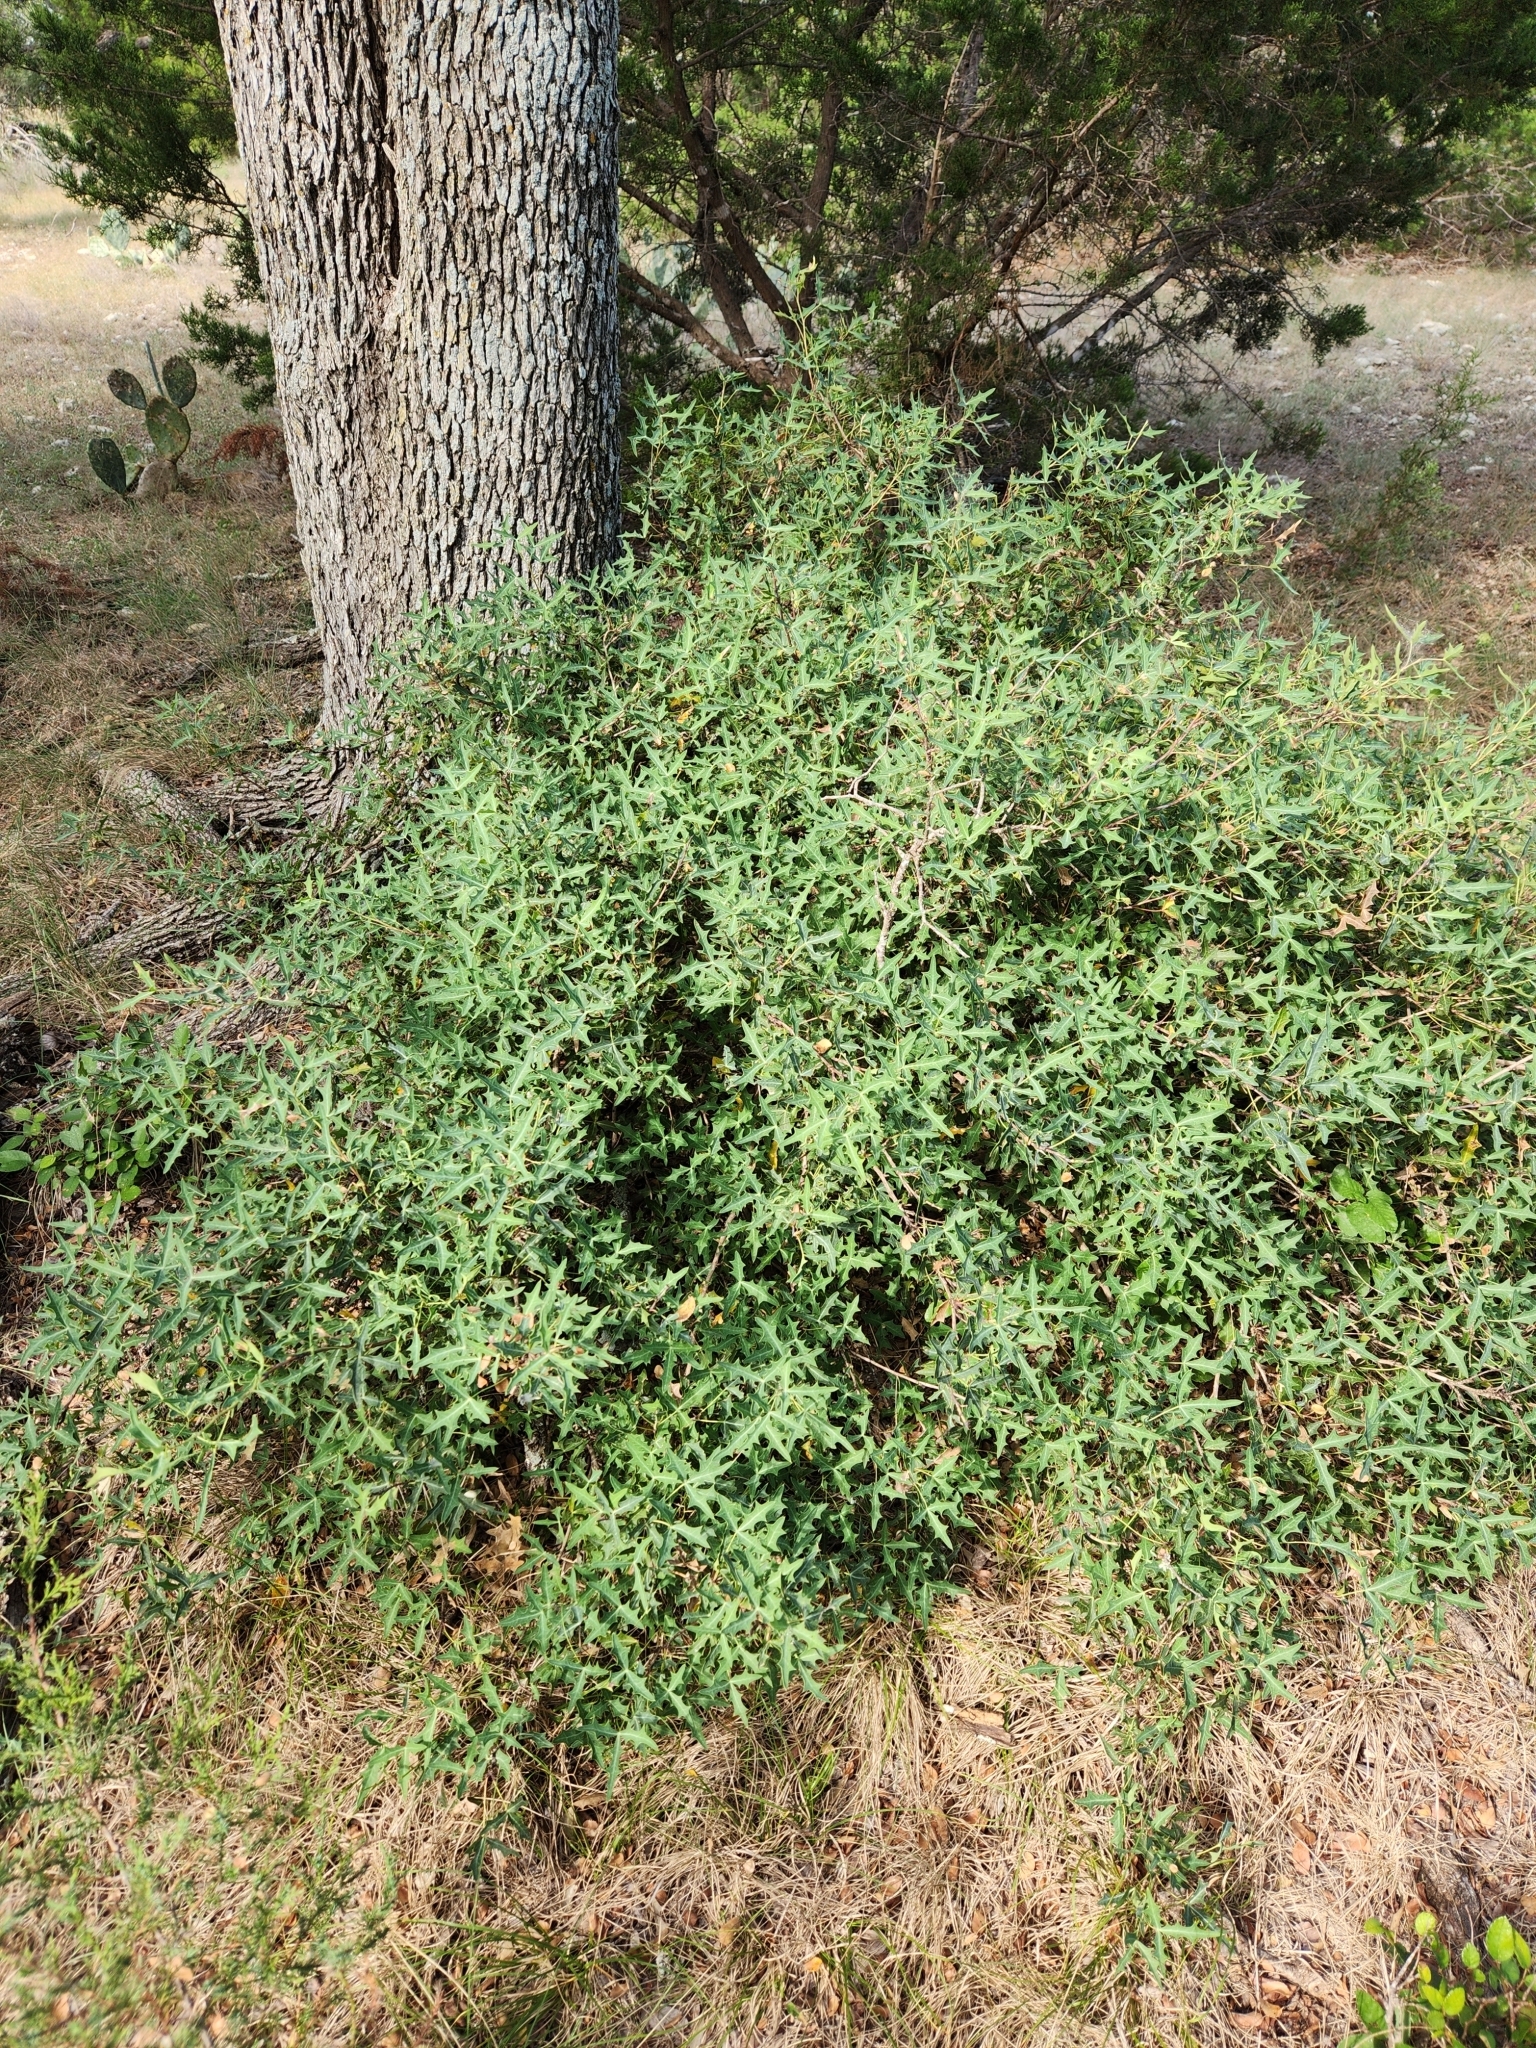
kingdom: Plantae
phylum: Tracheophyta
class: Magnoliopsida
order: Ranunculales
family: Berberidaceae
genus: Alloberberis
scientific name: Alloberberis trifoliolata
